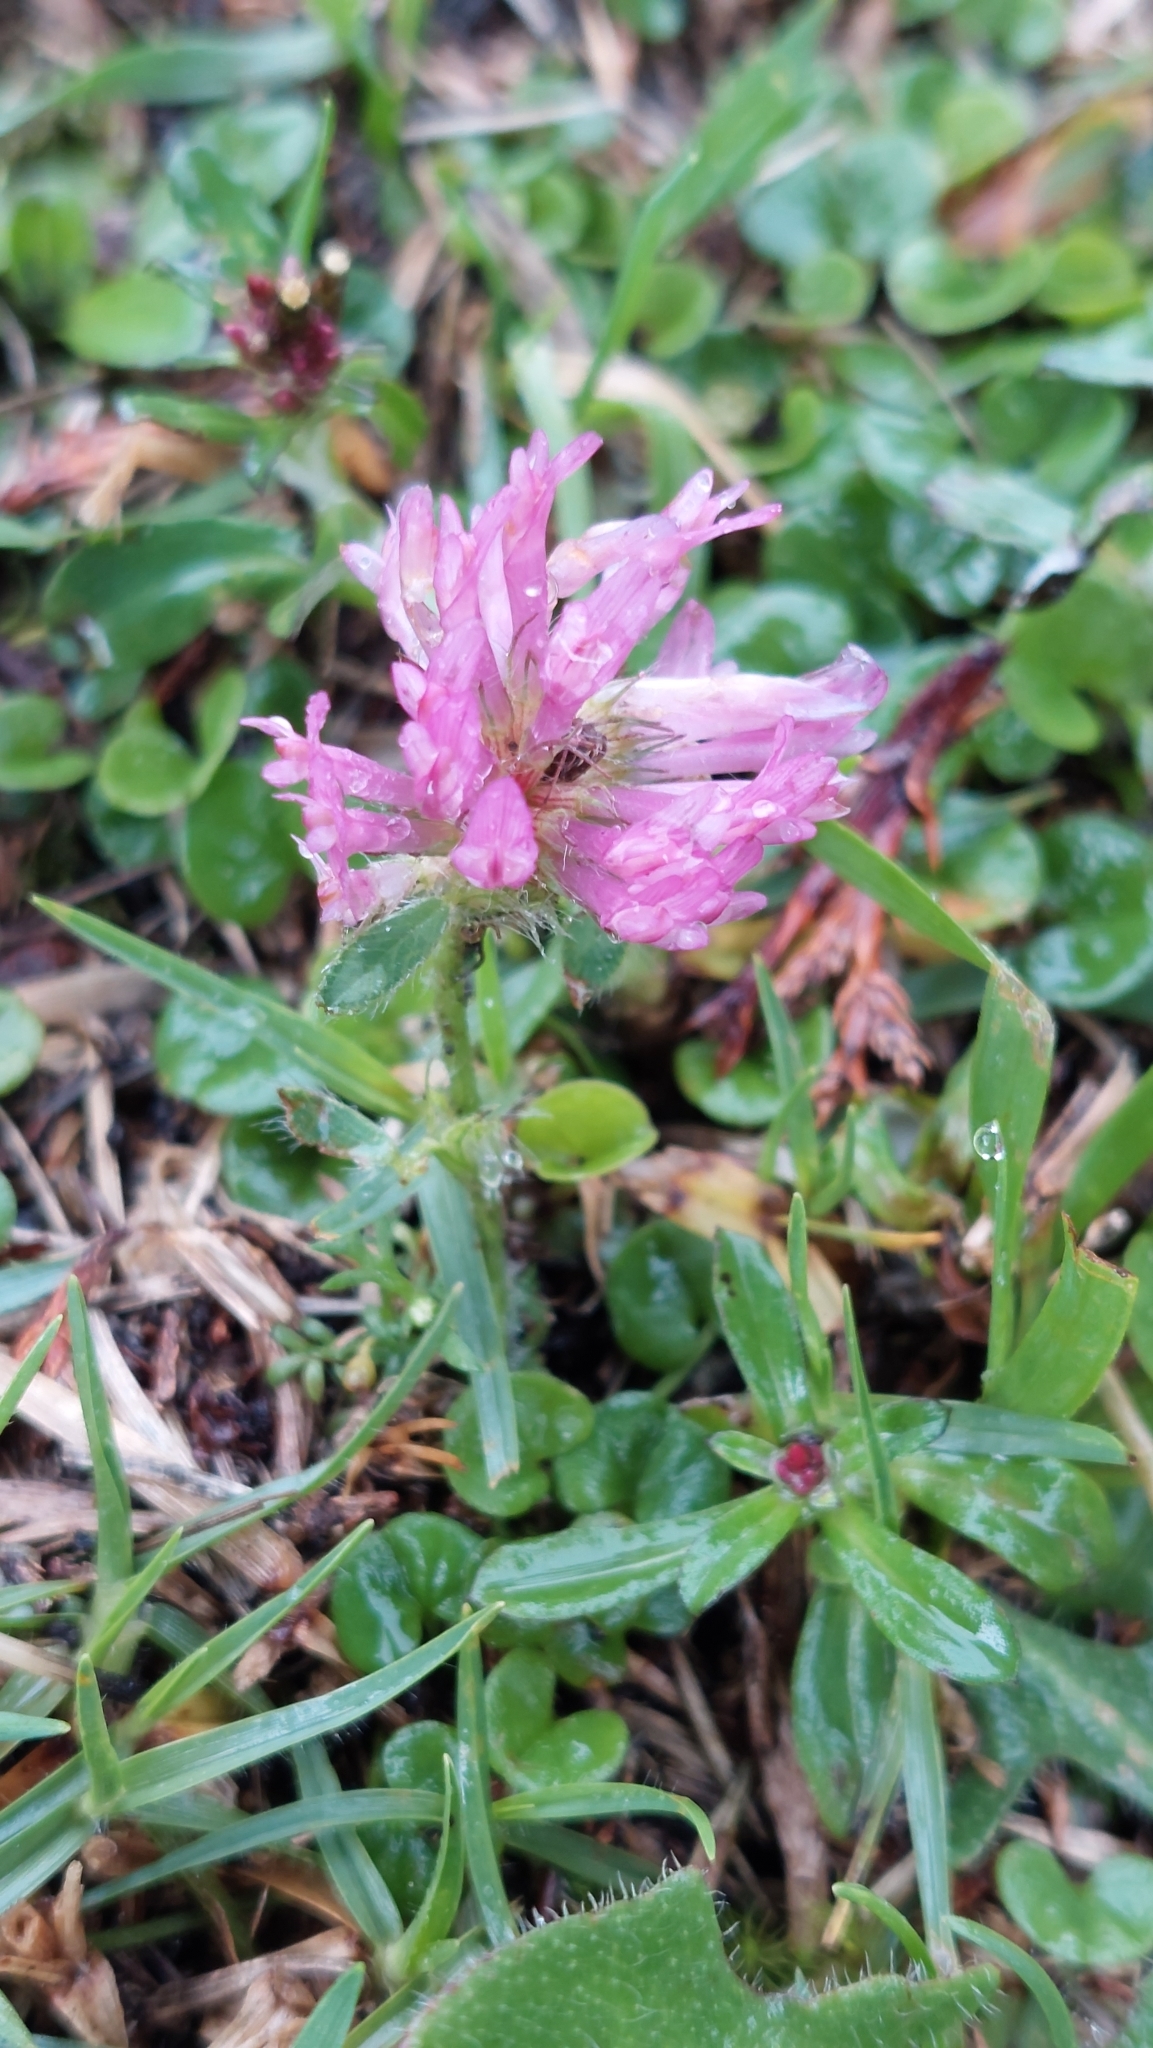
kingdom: Plantae
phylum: Tracheophyta
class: Magnoliopsida
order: Fabales
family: Fabaceae
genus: Trifolium
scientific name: Trifolium pratense
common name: Red clover
